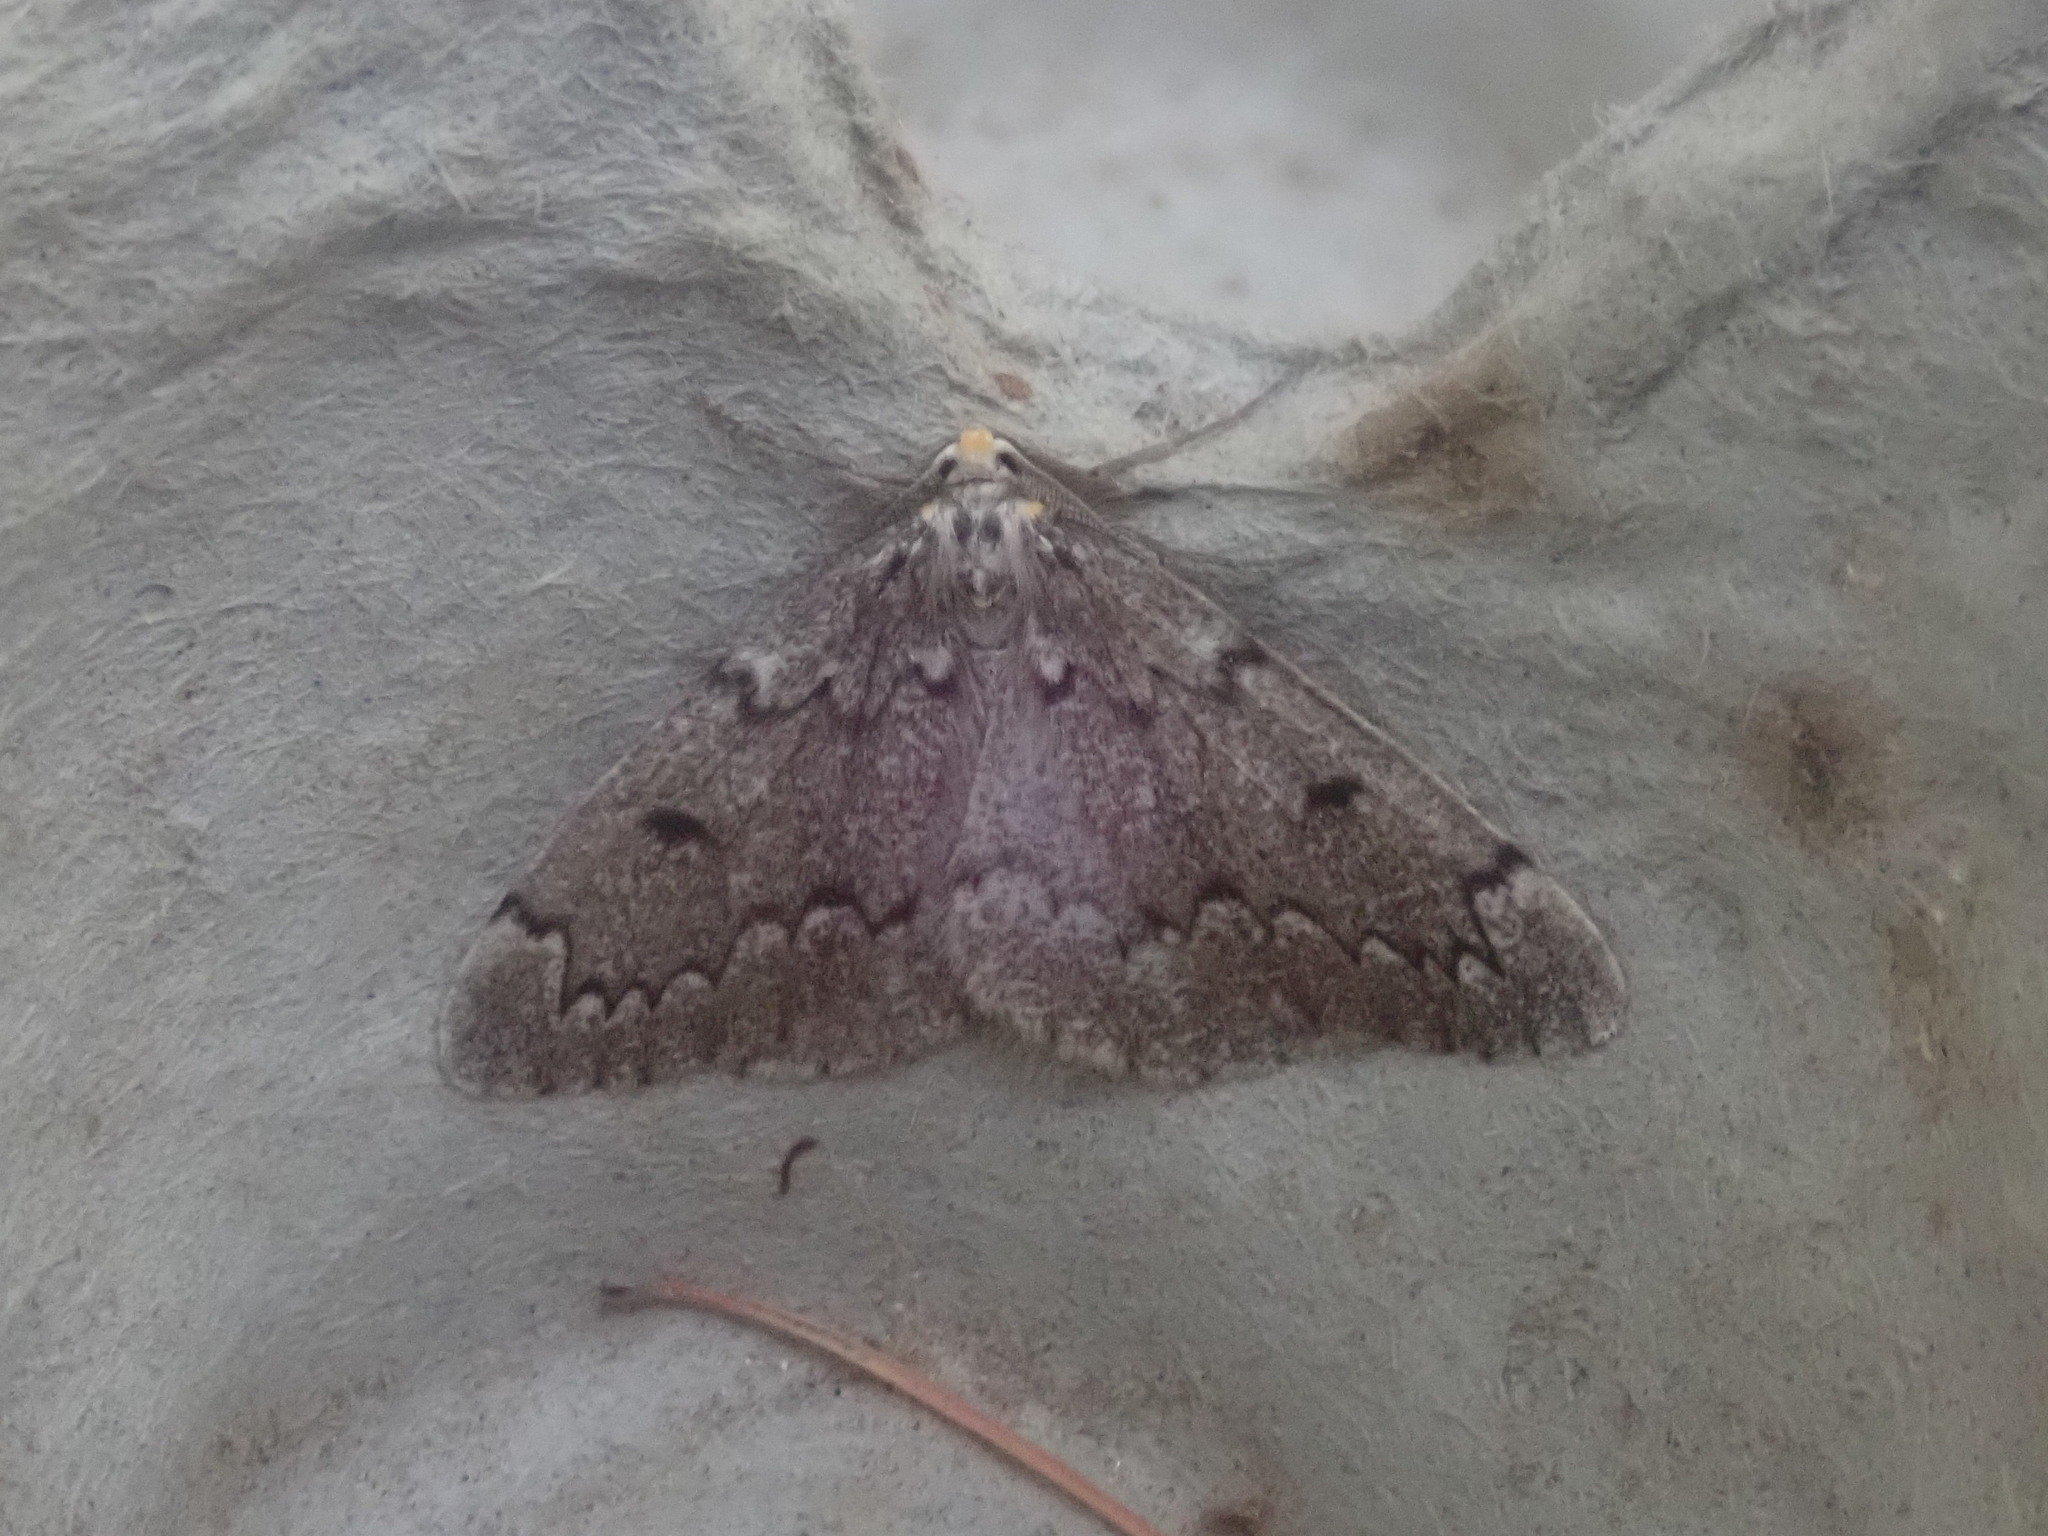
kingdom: Animalia
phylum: Arthropoda
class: Insecta
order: Lepidoptera
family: Geometridae
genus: Nepytia
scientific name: Nepytia canosaria
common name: False hemlock looper
